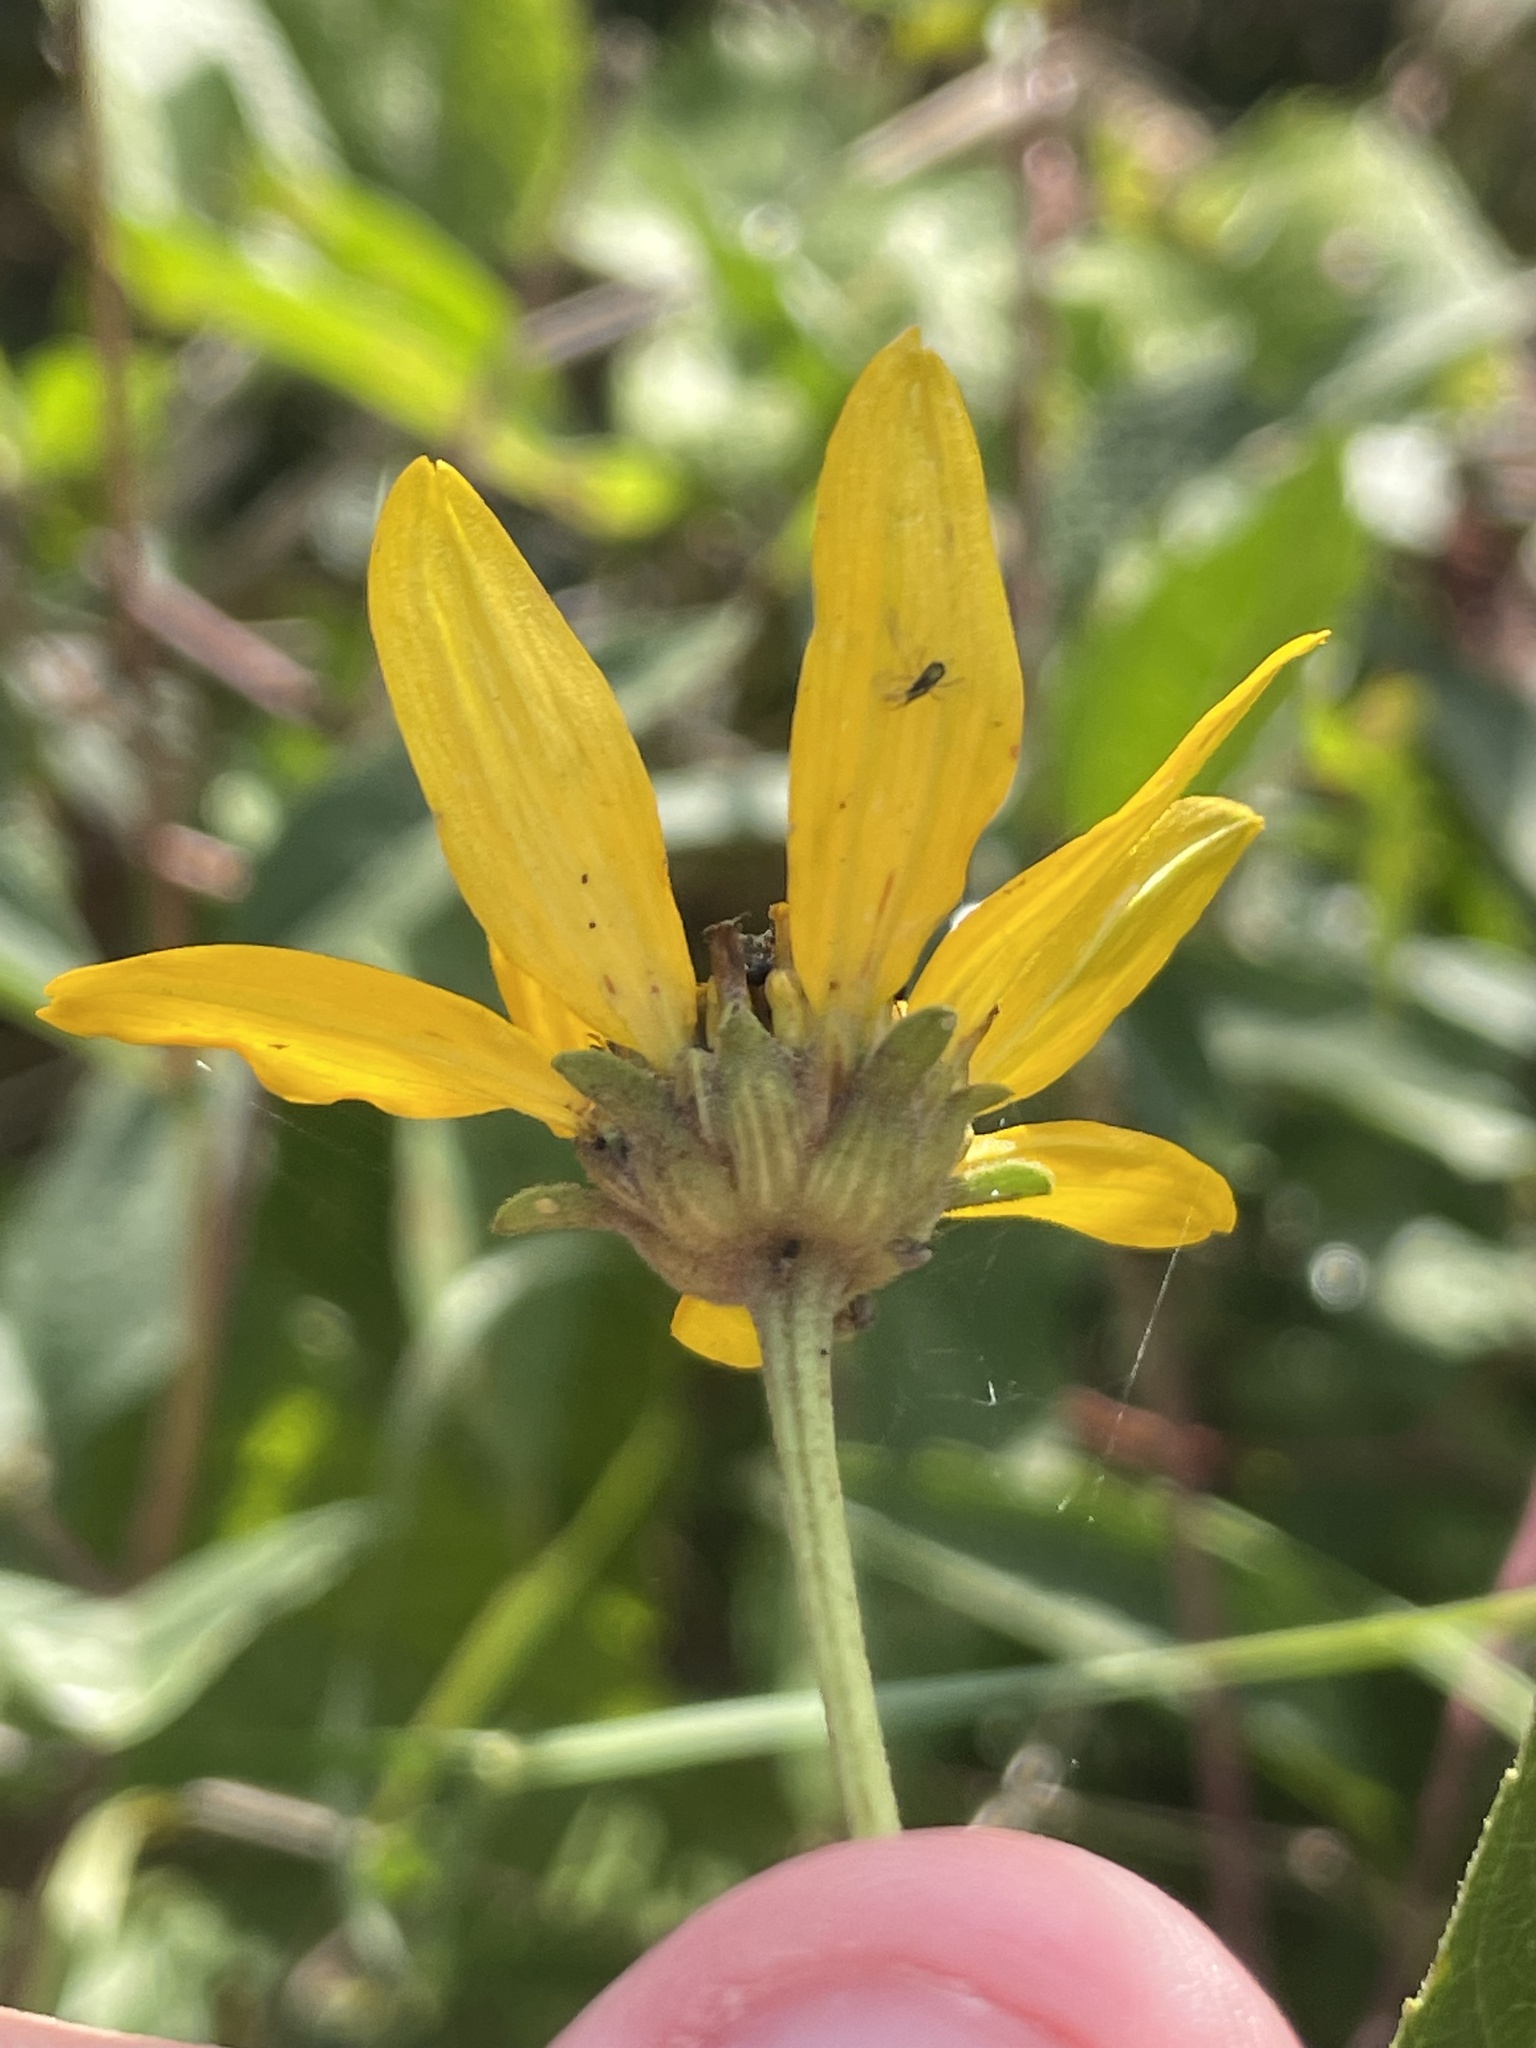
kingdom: Plantae
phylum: Tracheophyta
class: Magnoliopsida
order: Asterales
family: Asteraceae
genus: Heliopsis
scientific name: Heliopsis helianthoides
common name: False sunflower
